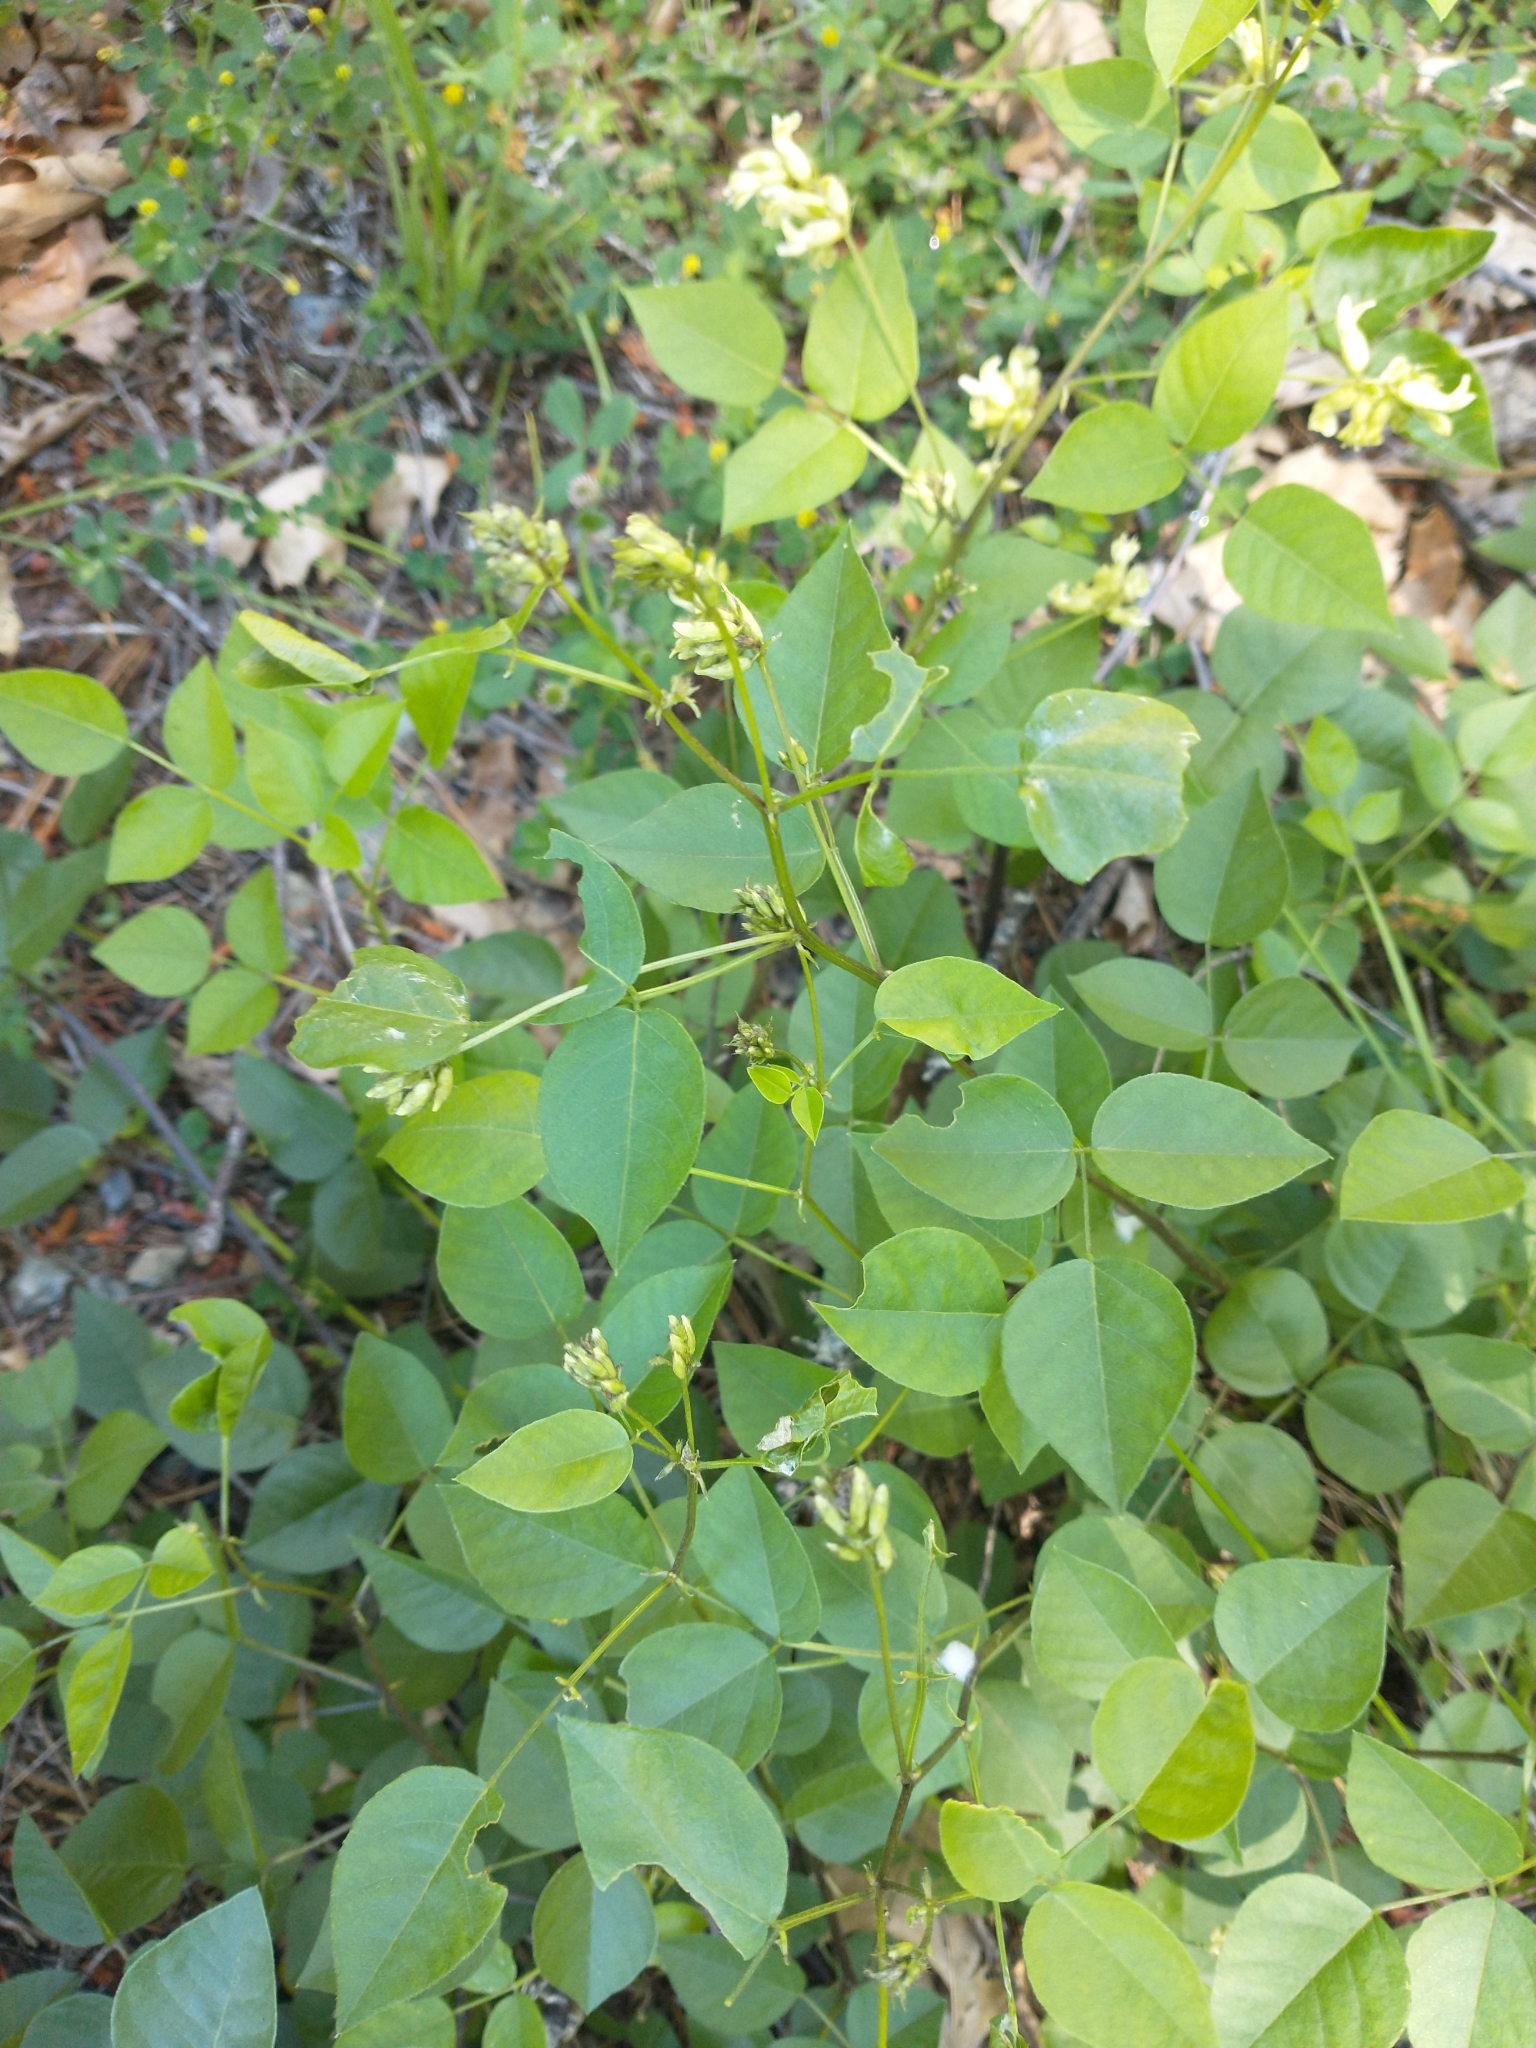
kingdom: Plantae
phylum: Tracheophyta
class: Magnoliopsida
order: Fabales
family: Fabaceae
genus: Rupertia
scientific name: Rupertia physodes
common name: California-tea
